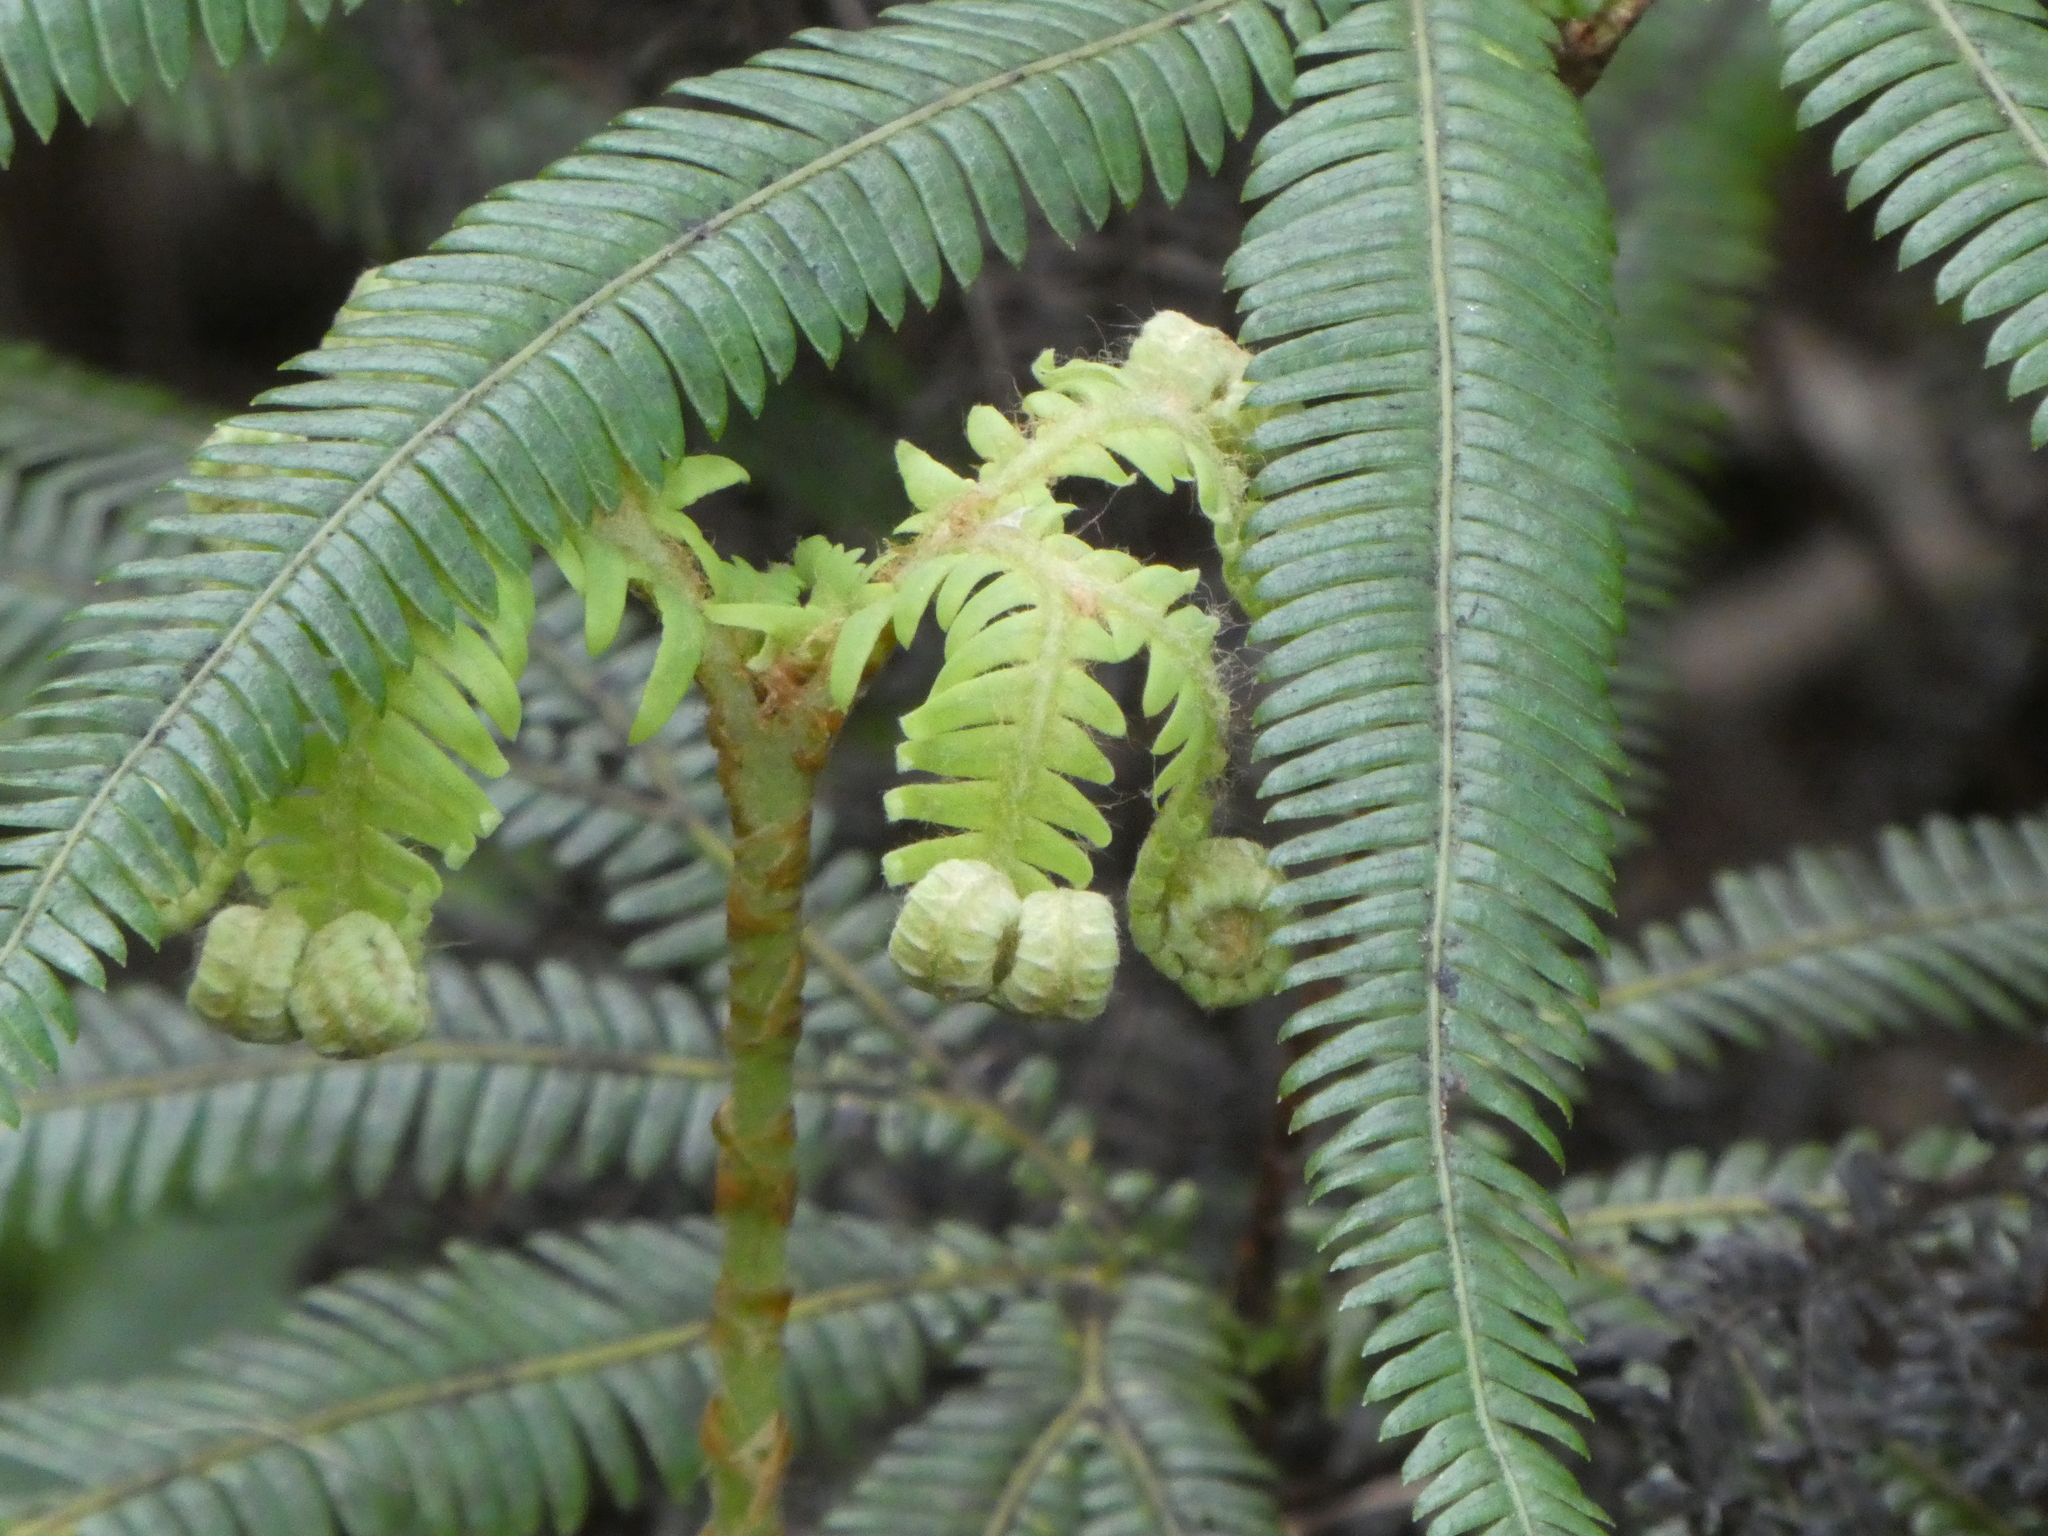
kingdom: Plantae
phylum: Tracheophyta
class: Polypodiopsida
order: Gleicheniales
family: Gleicheniaceae
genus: Sticherus
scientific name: Sticherus cunninghamii
